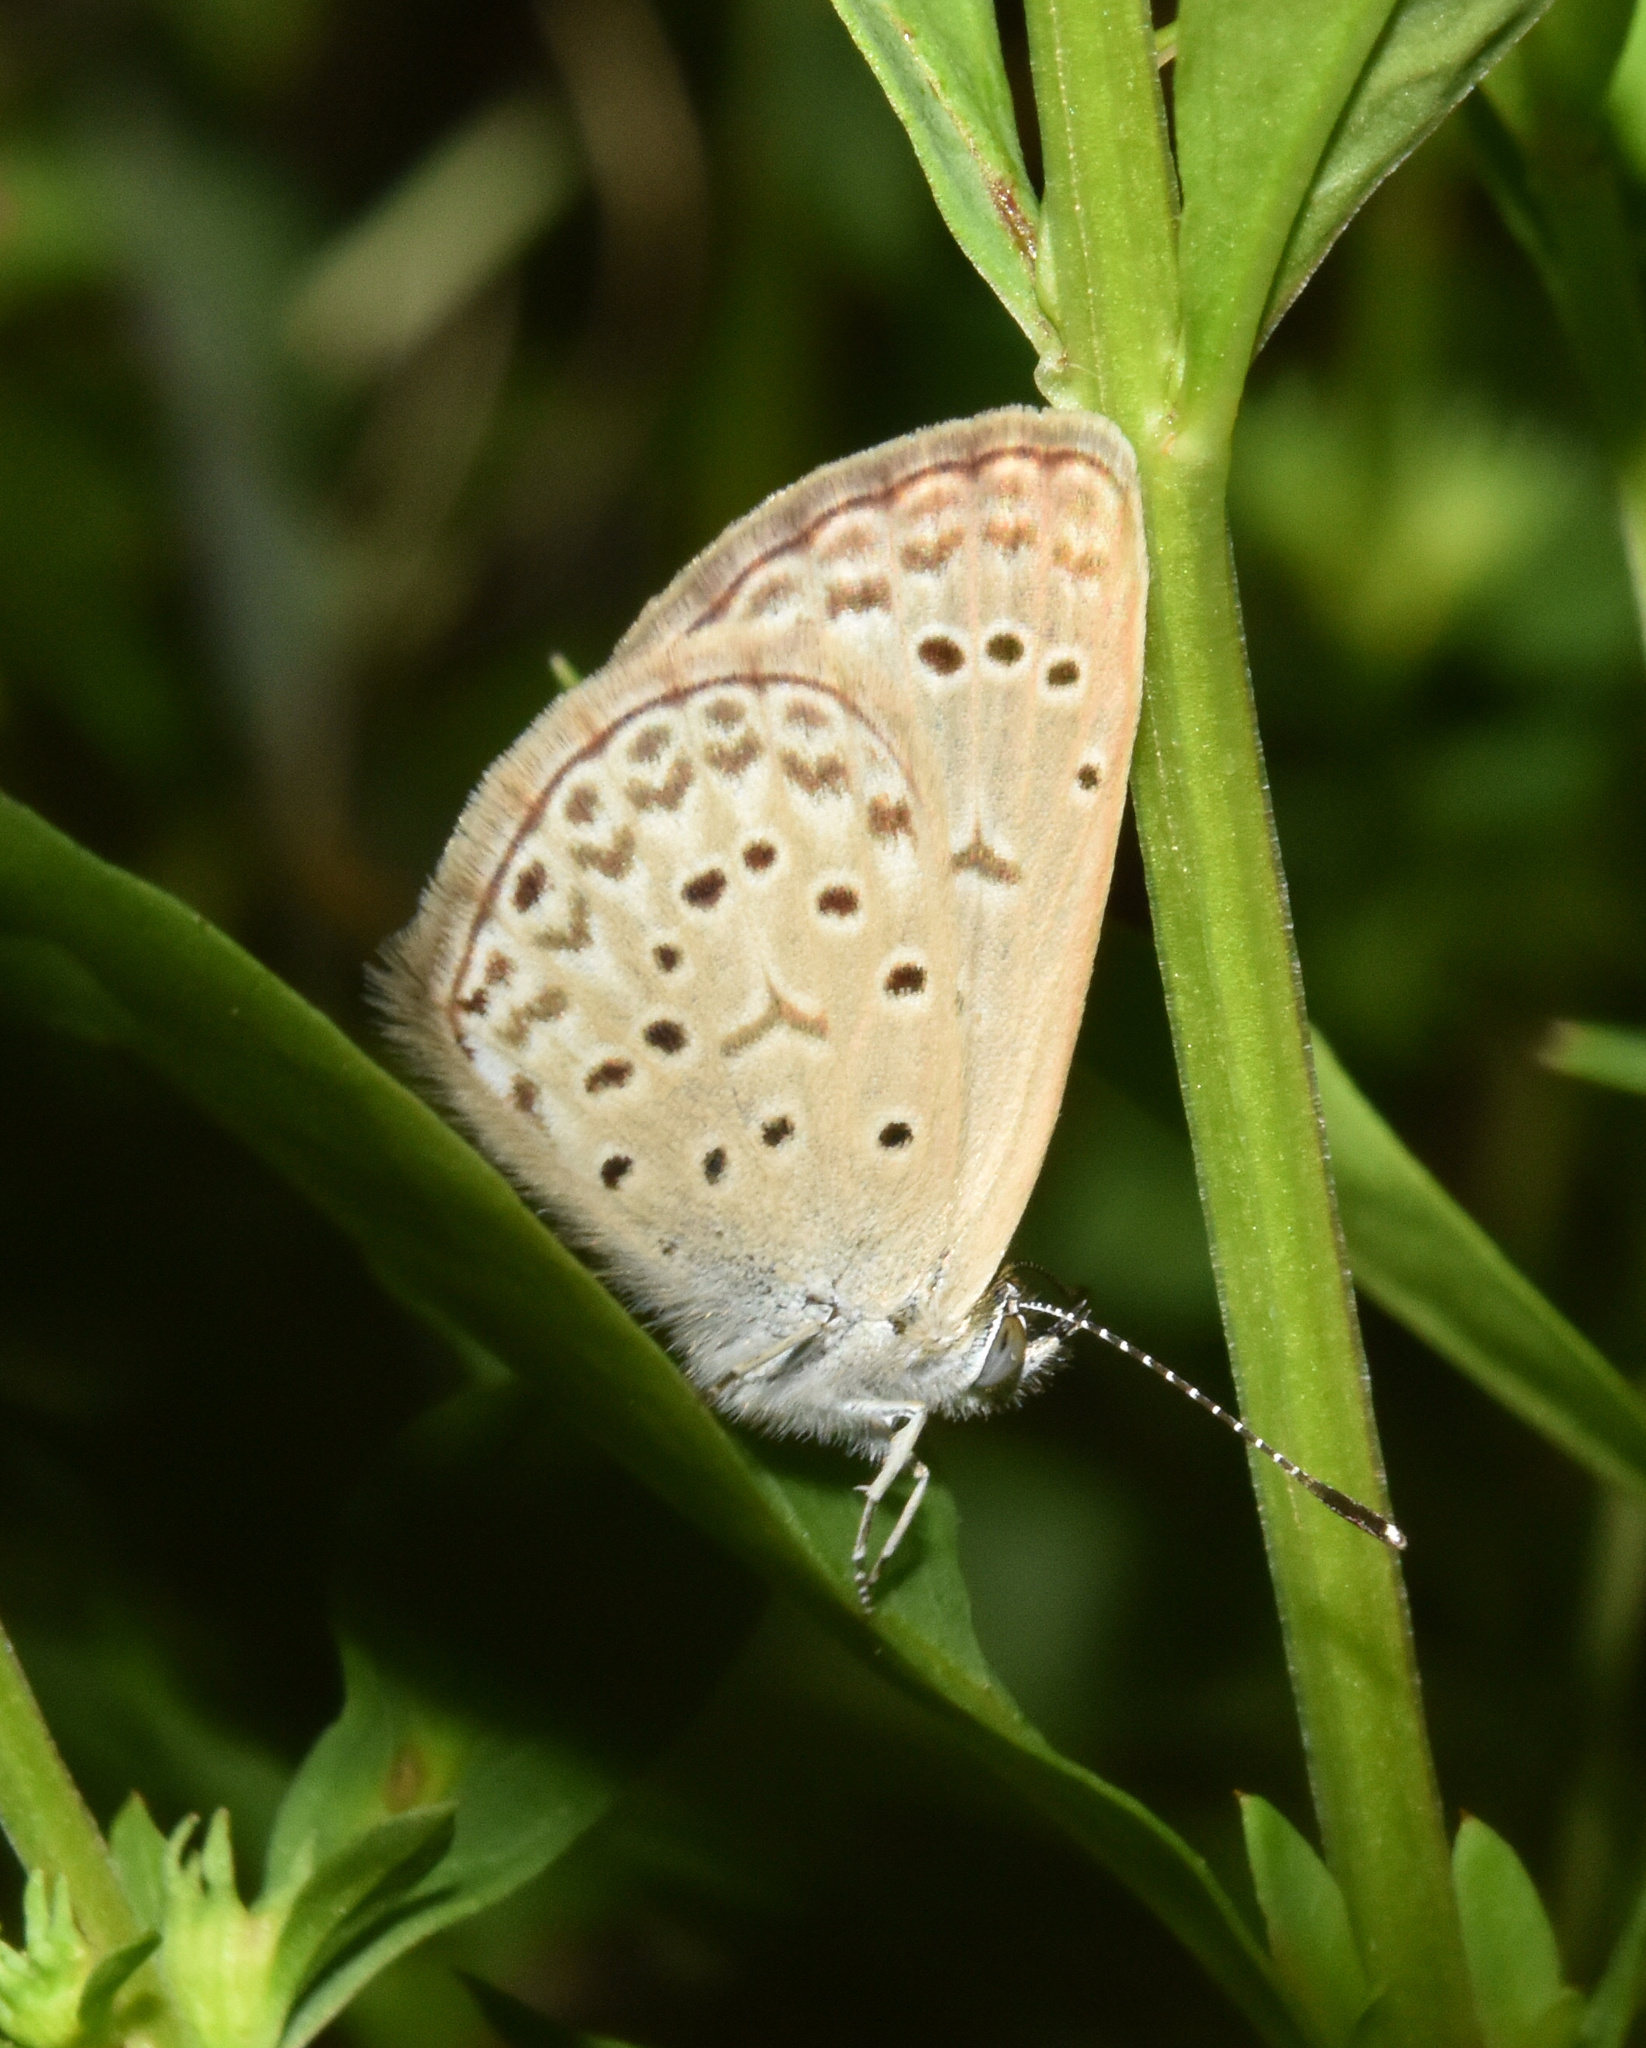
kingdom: Animalia
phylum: Arthropoda
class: Insecta
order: Lepidoptera
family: Lycaenidae
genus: Zizeeria
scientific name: Zizeeria knysna
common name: African grass blue
